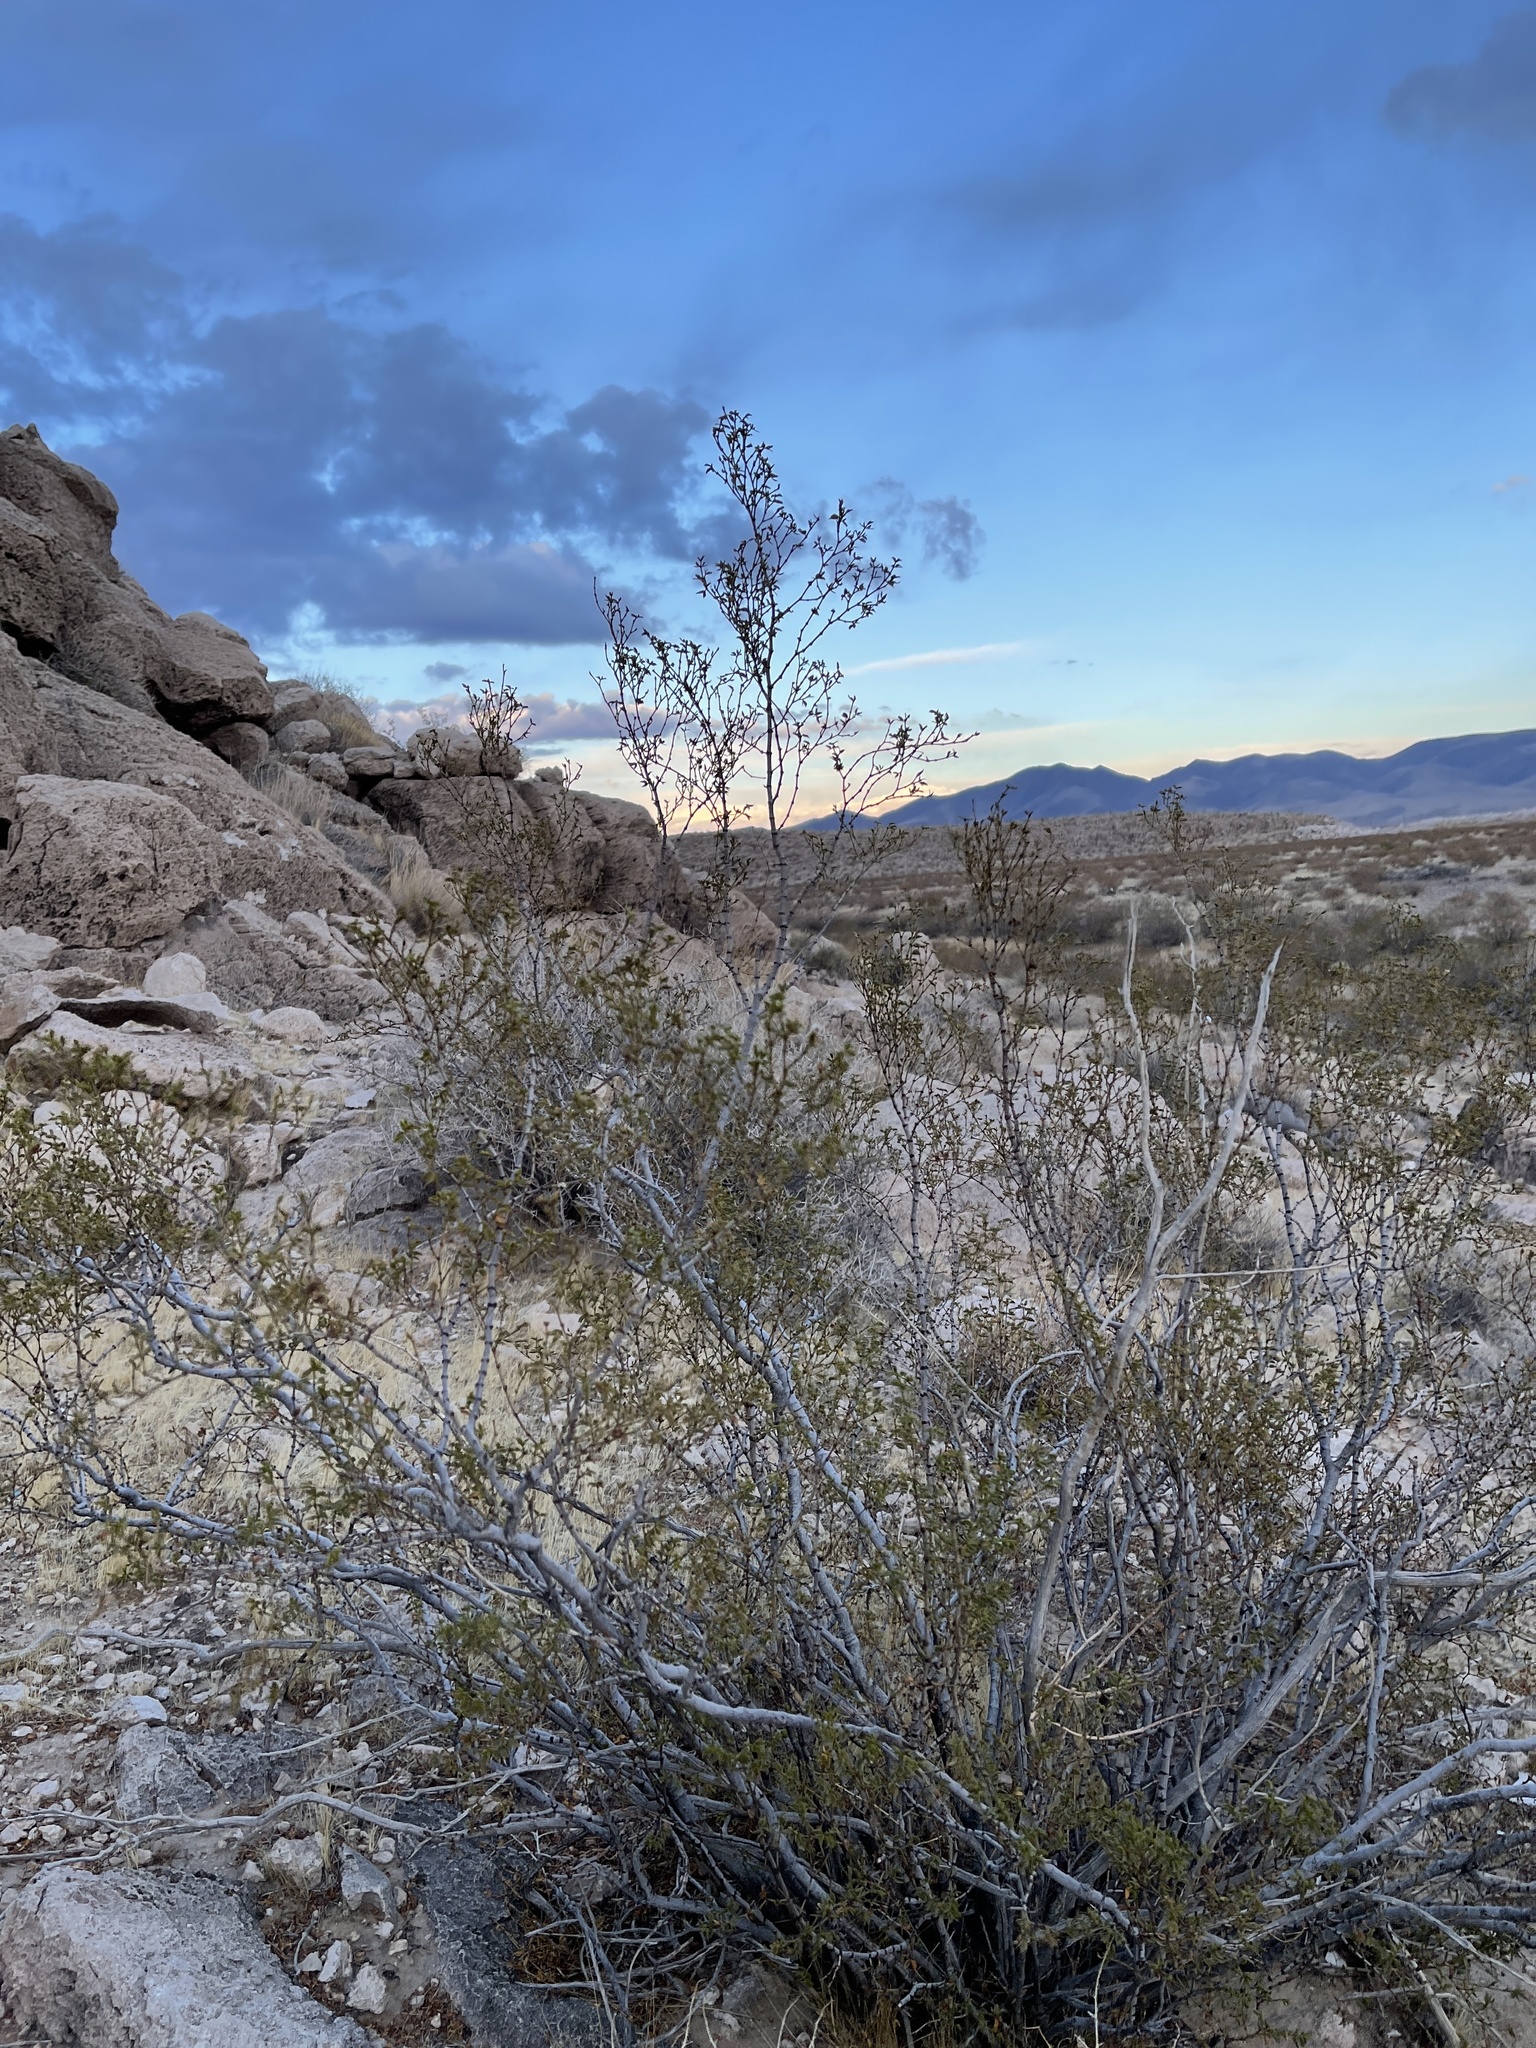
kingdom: Plantae
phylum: Tracheophyta
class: Magnoliopsida
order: Zygophyllales
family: Zygophyllaceae
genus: Larrea
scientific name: Larrea tridentata
